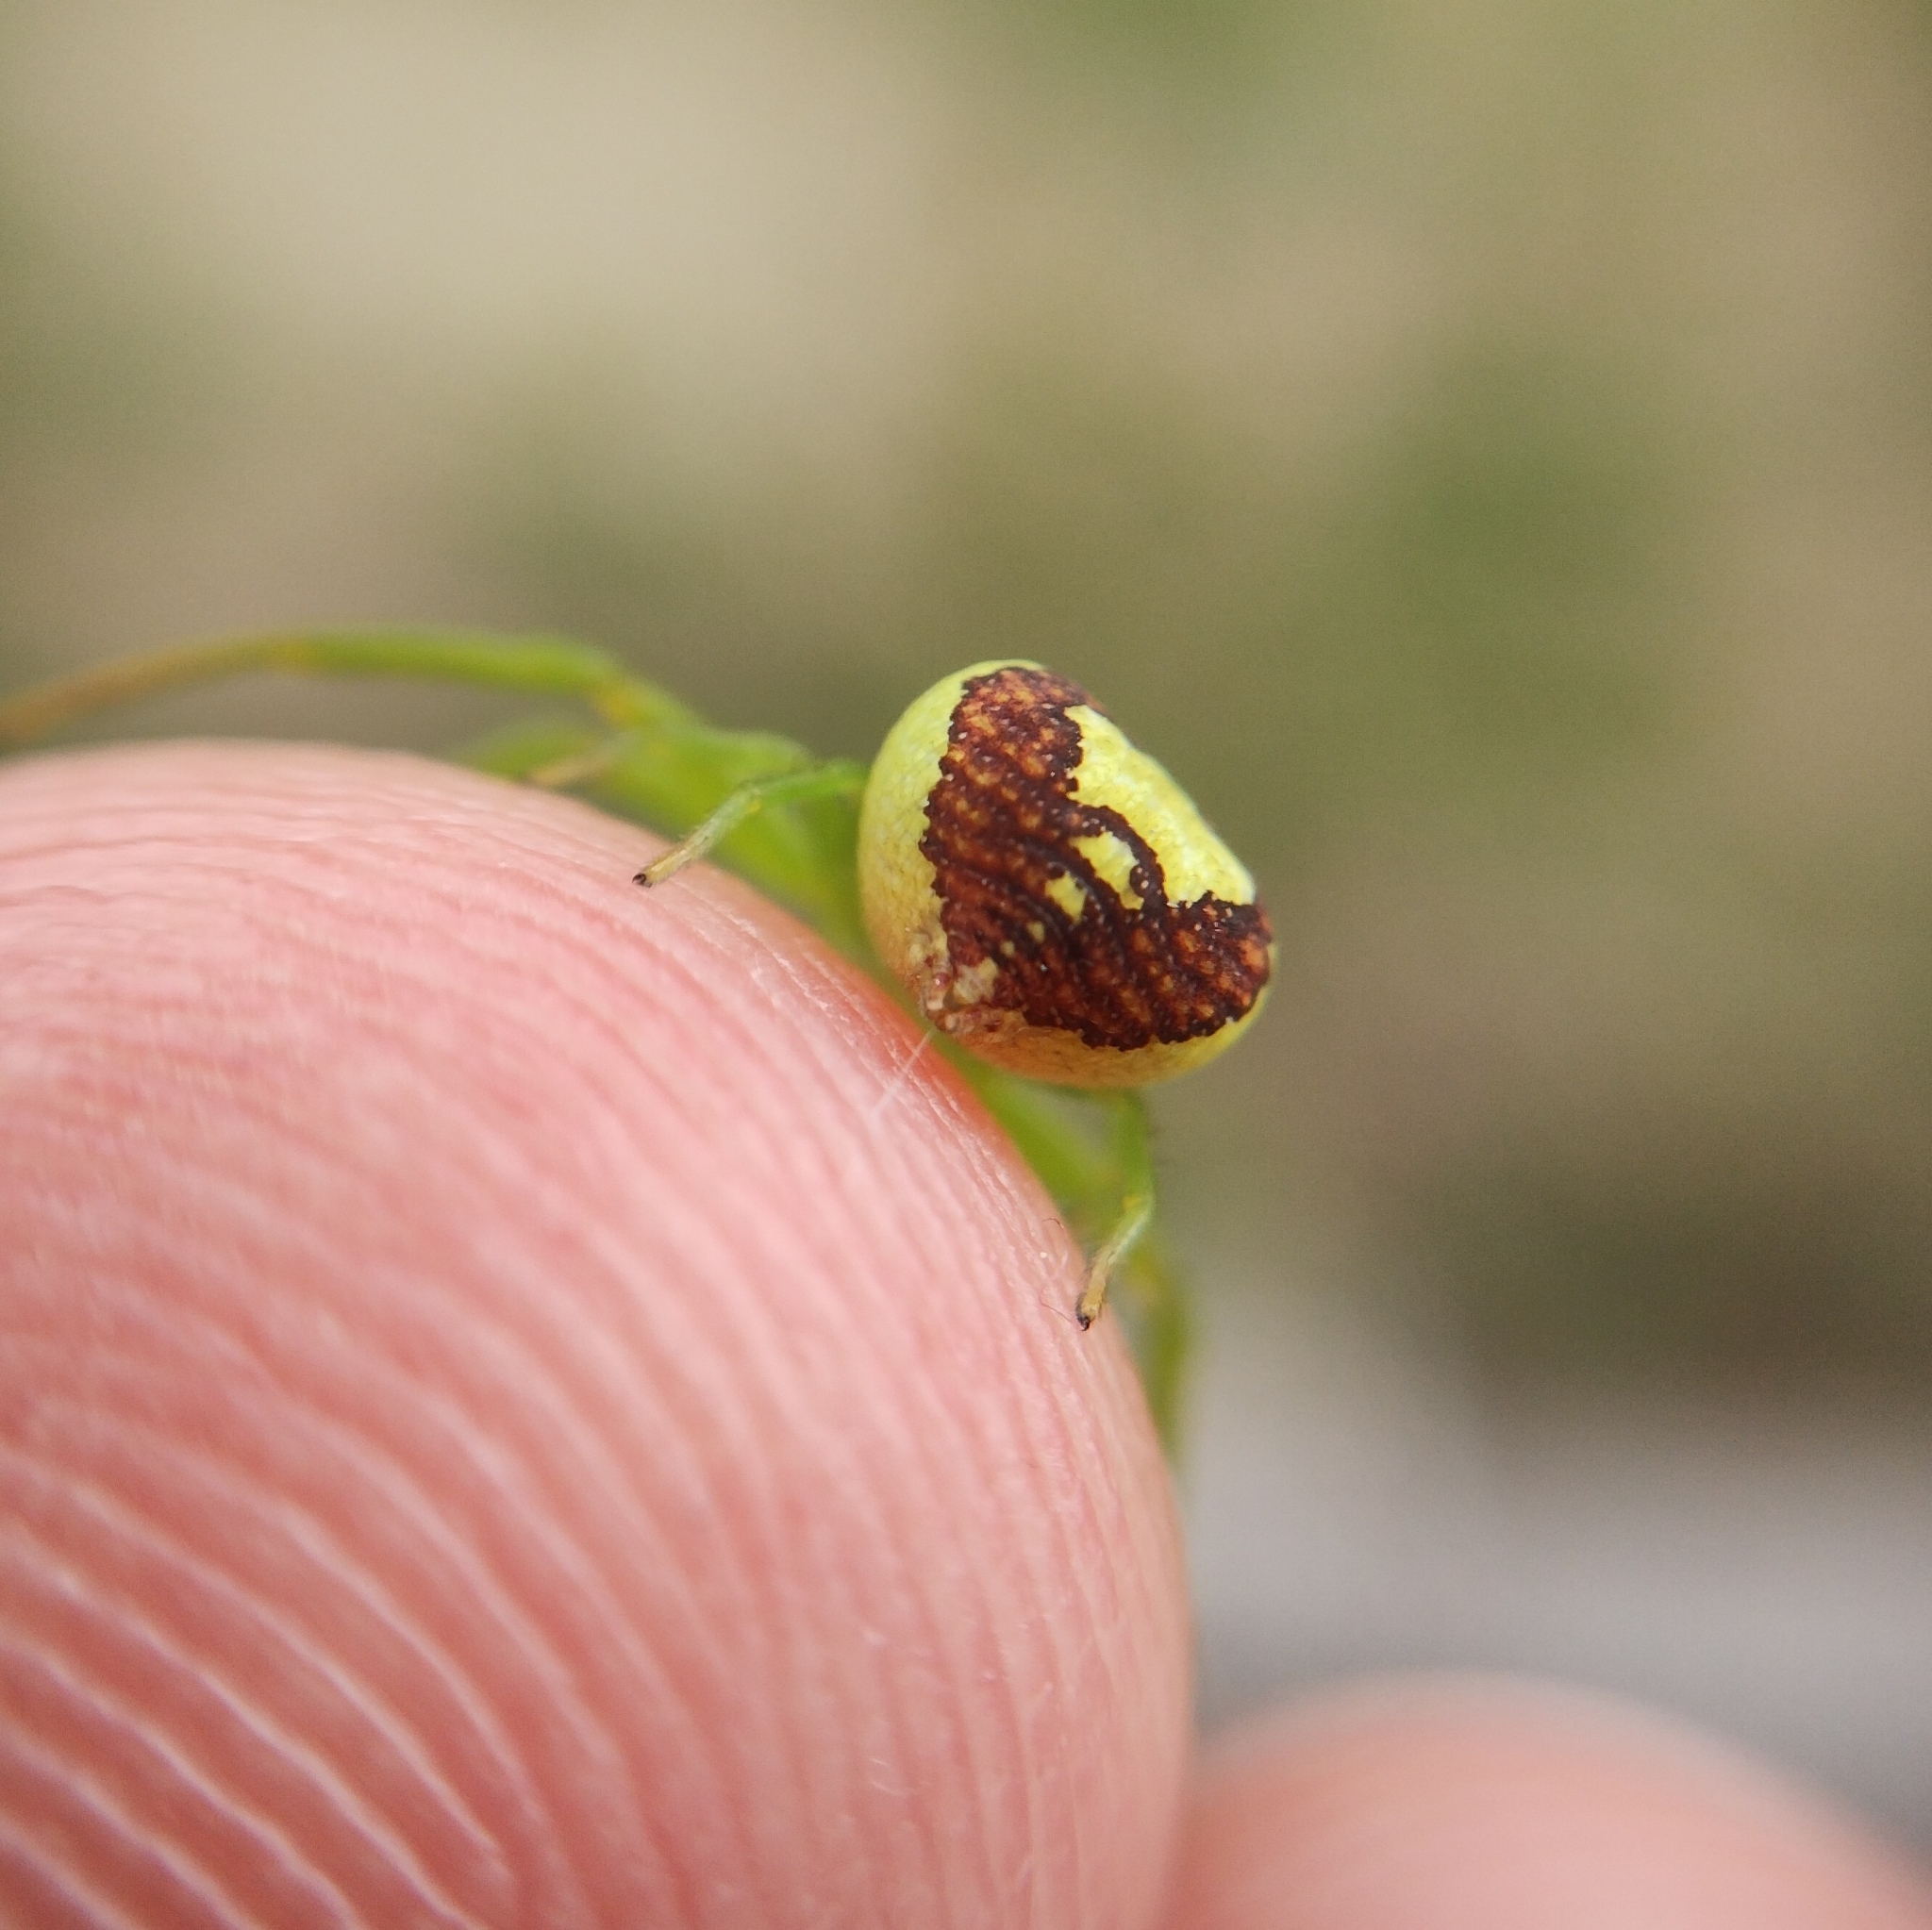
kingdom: Animalia
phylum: Arthropoda
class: Arachnida
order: Araneae
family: Thomisidae
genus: Ebrechtella
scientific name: Ebrechtella tricuspidata
